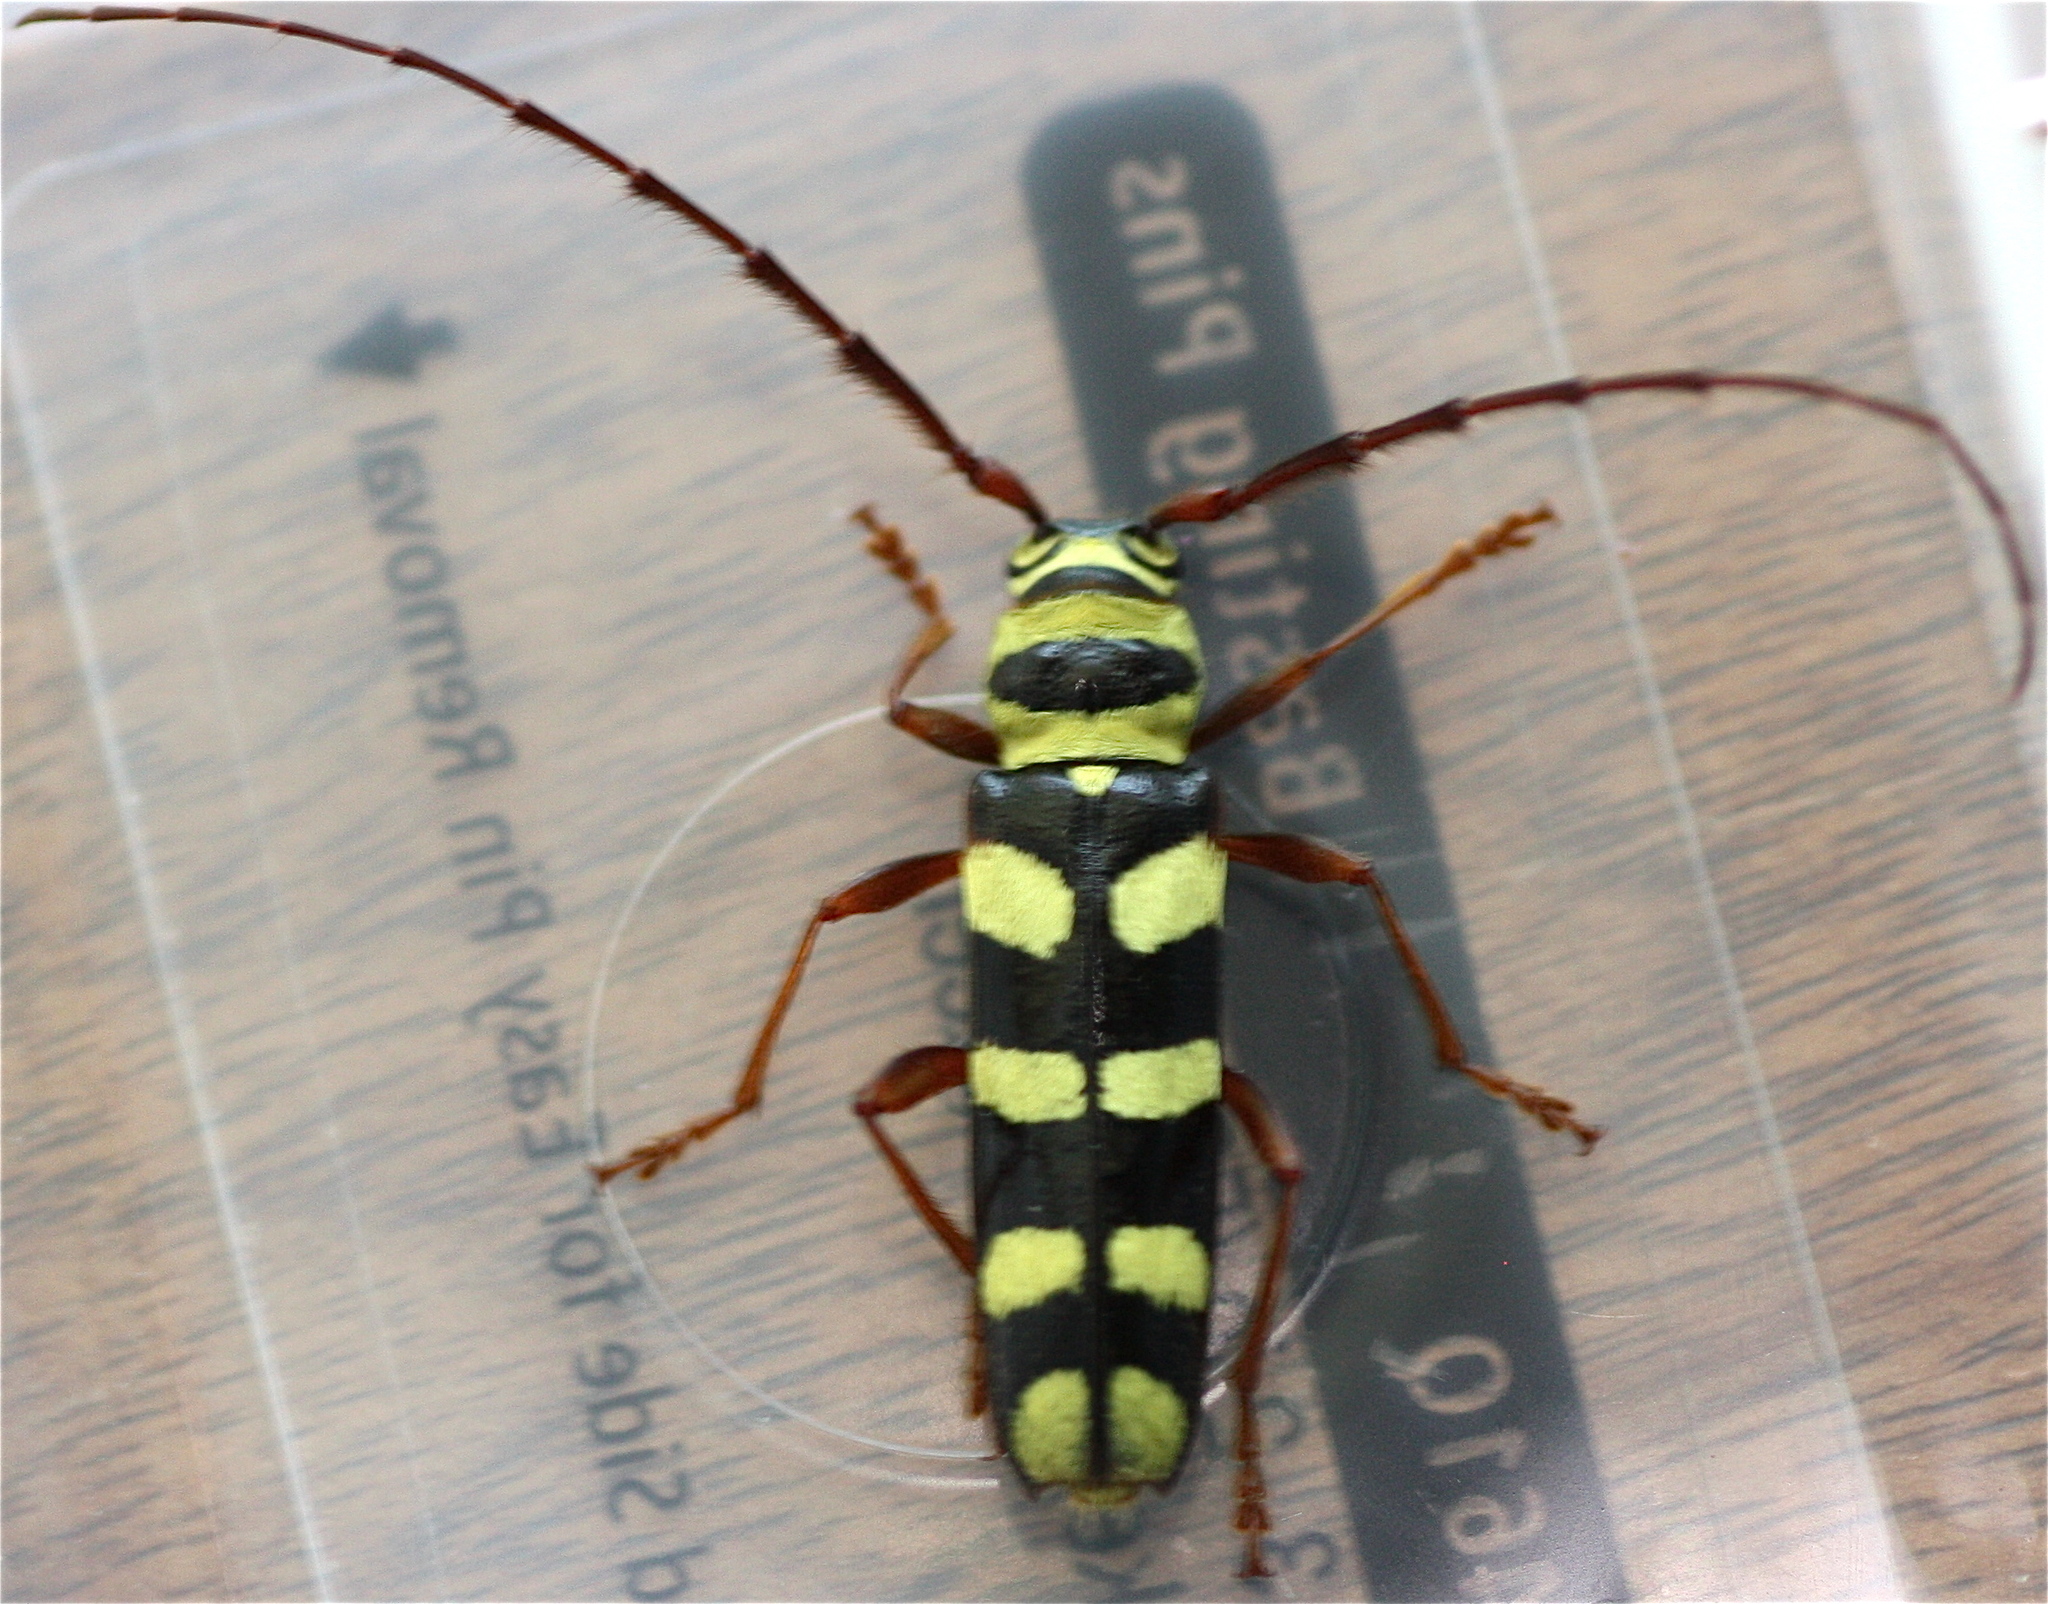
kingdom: Animalia
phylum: Arthropoda
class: Insecta
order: Coleoptera
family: Cerambycidae
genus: Dryobius
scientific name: Dryobius sexnotatus
